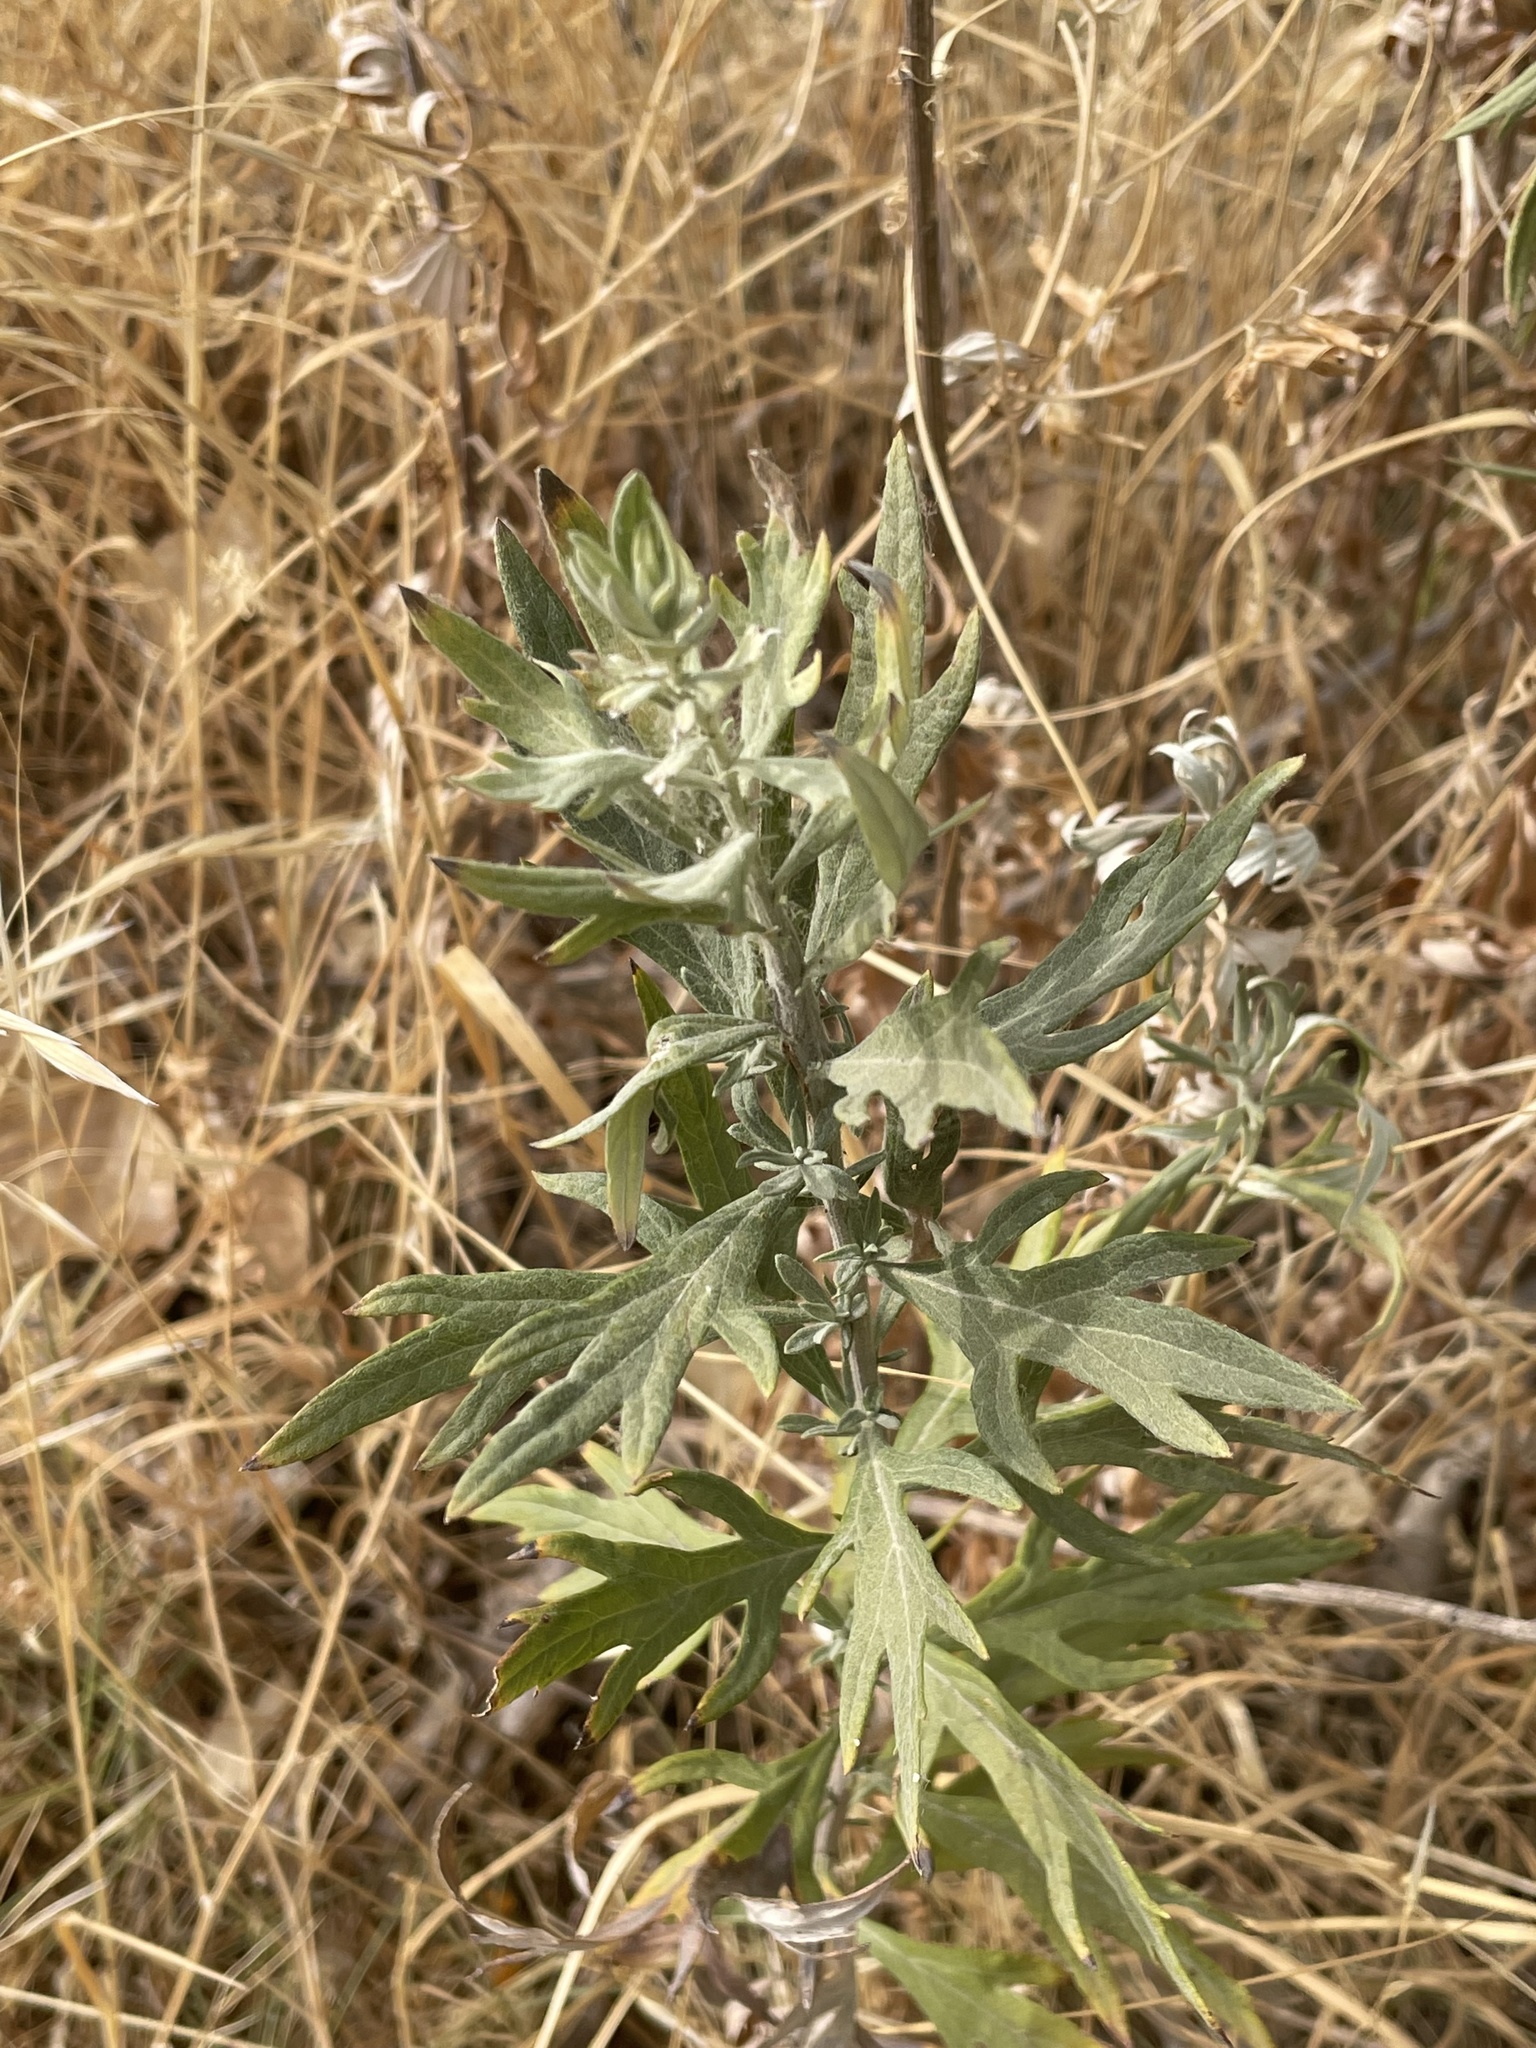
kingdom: Plantae
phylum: Tracheophyta
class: Magnoliopsida
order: Asterales
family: Asteraceae
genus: Artemisia
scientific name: Artemisia douglasiana
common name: Northwest mugwort
